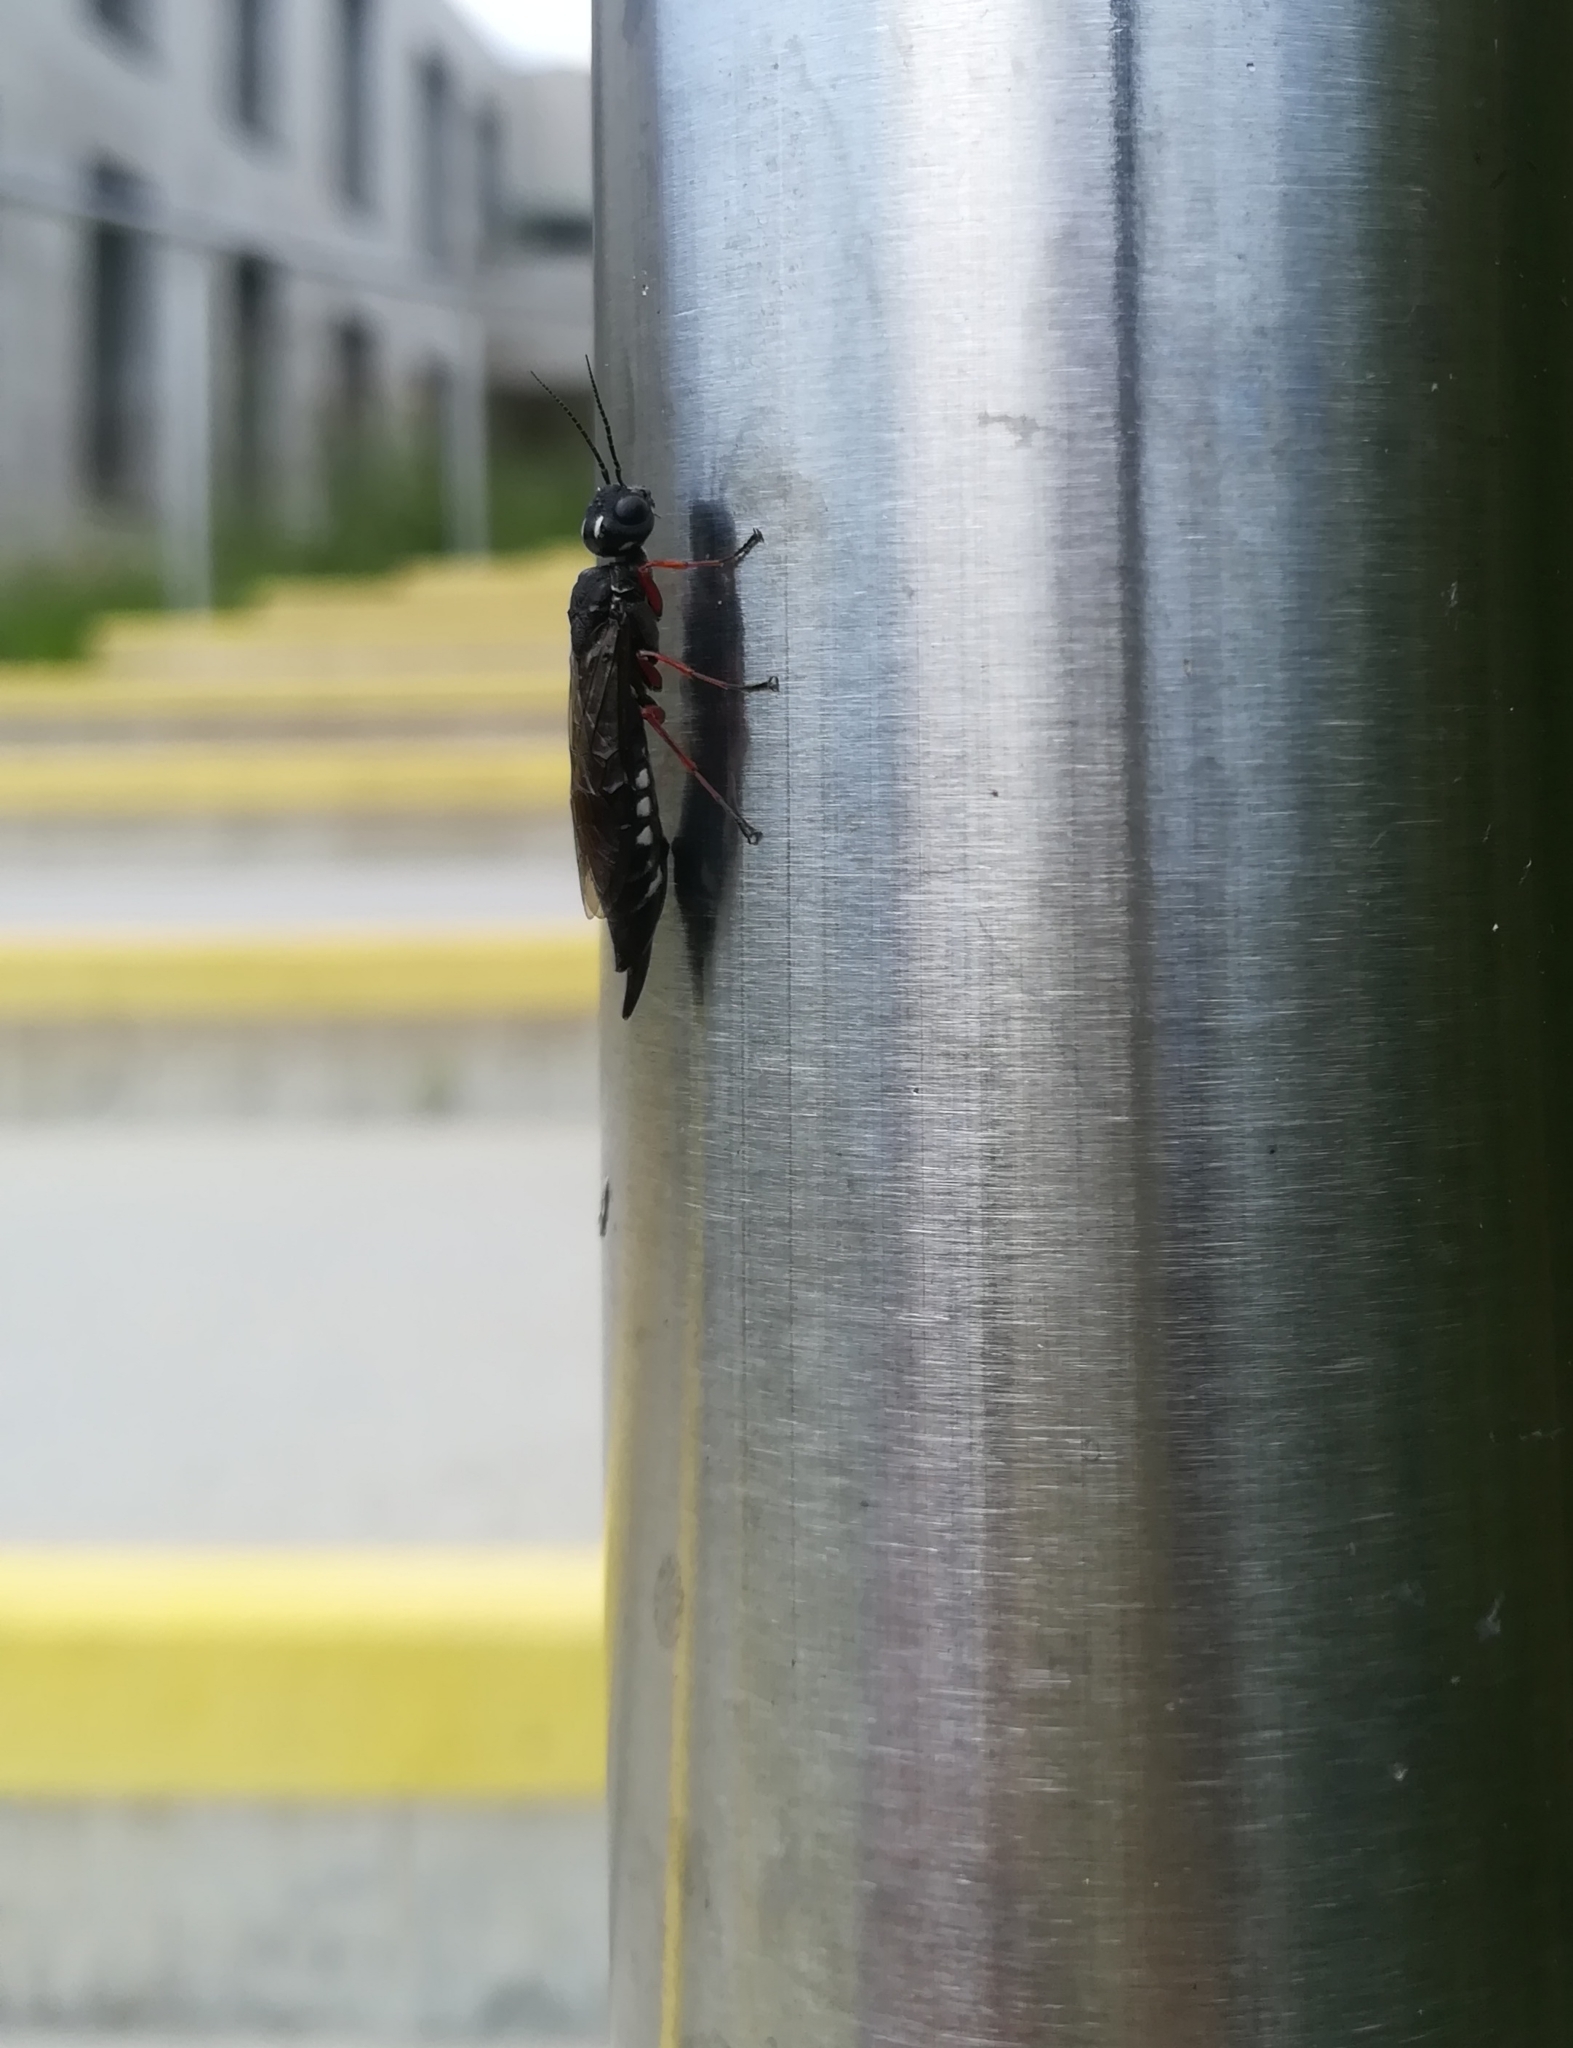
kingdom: Animalia
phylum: Arthropoda
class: Insecta
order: Hymenoptera
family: Xiphydriidae
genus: Xiphydria
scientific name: Xiphydria camelus
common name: Alder wood-wasp
